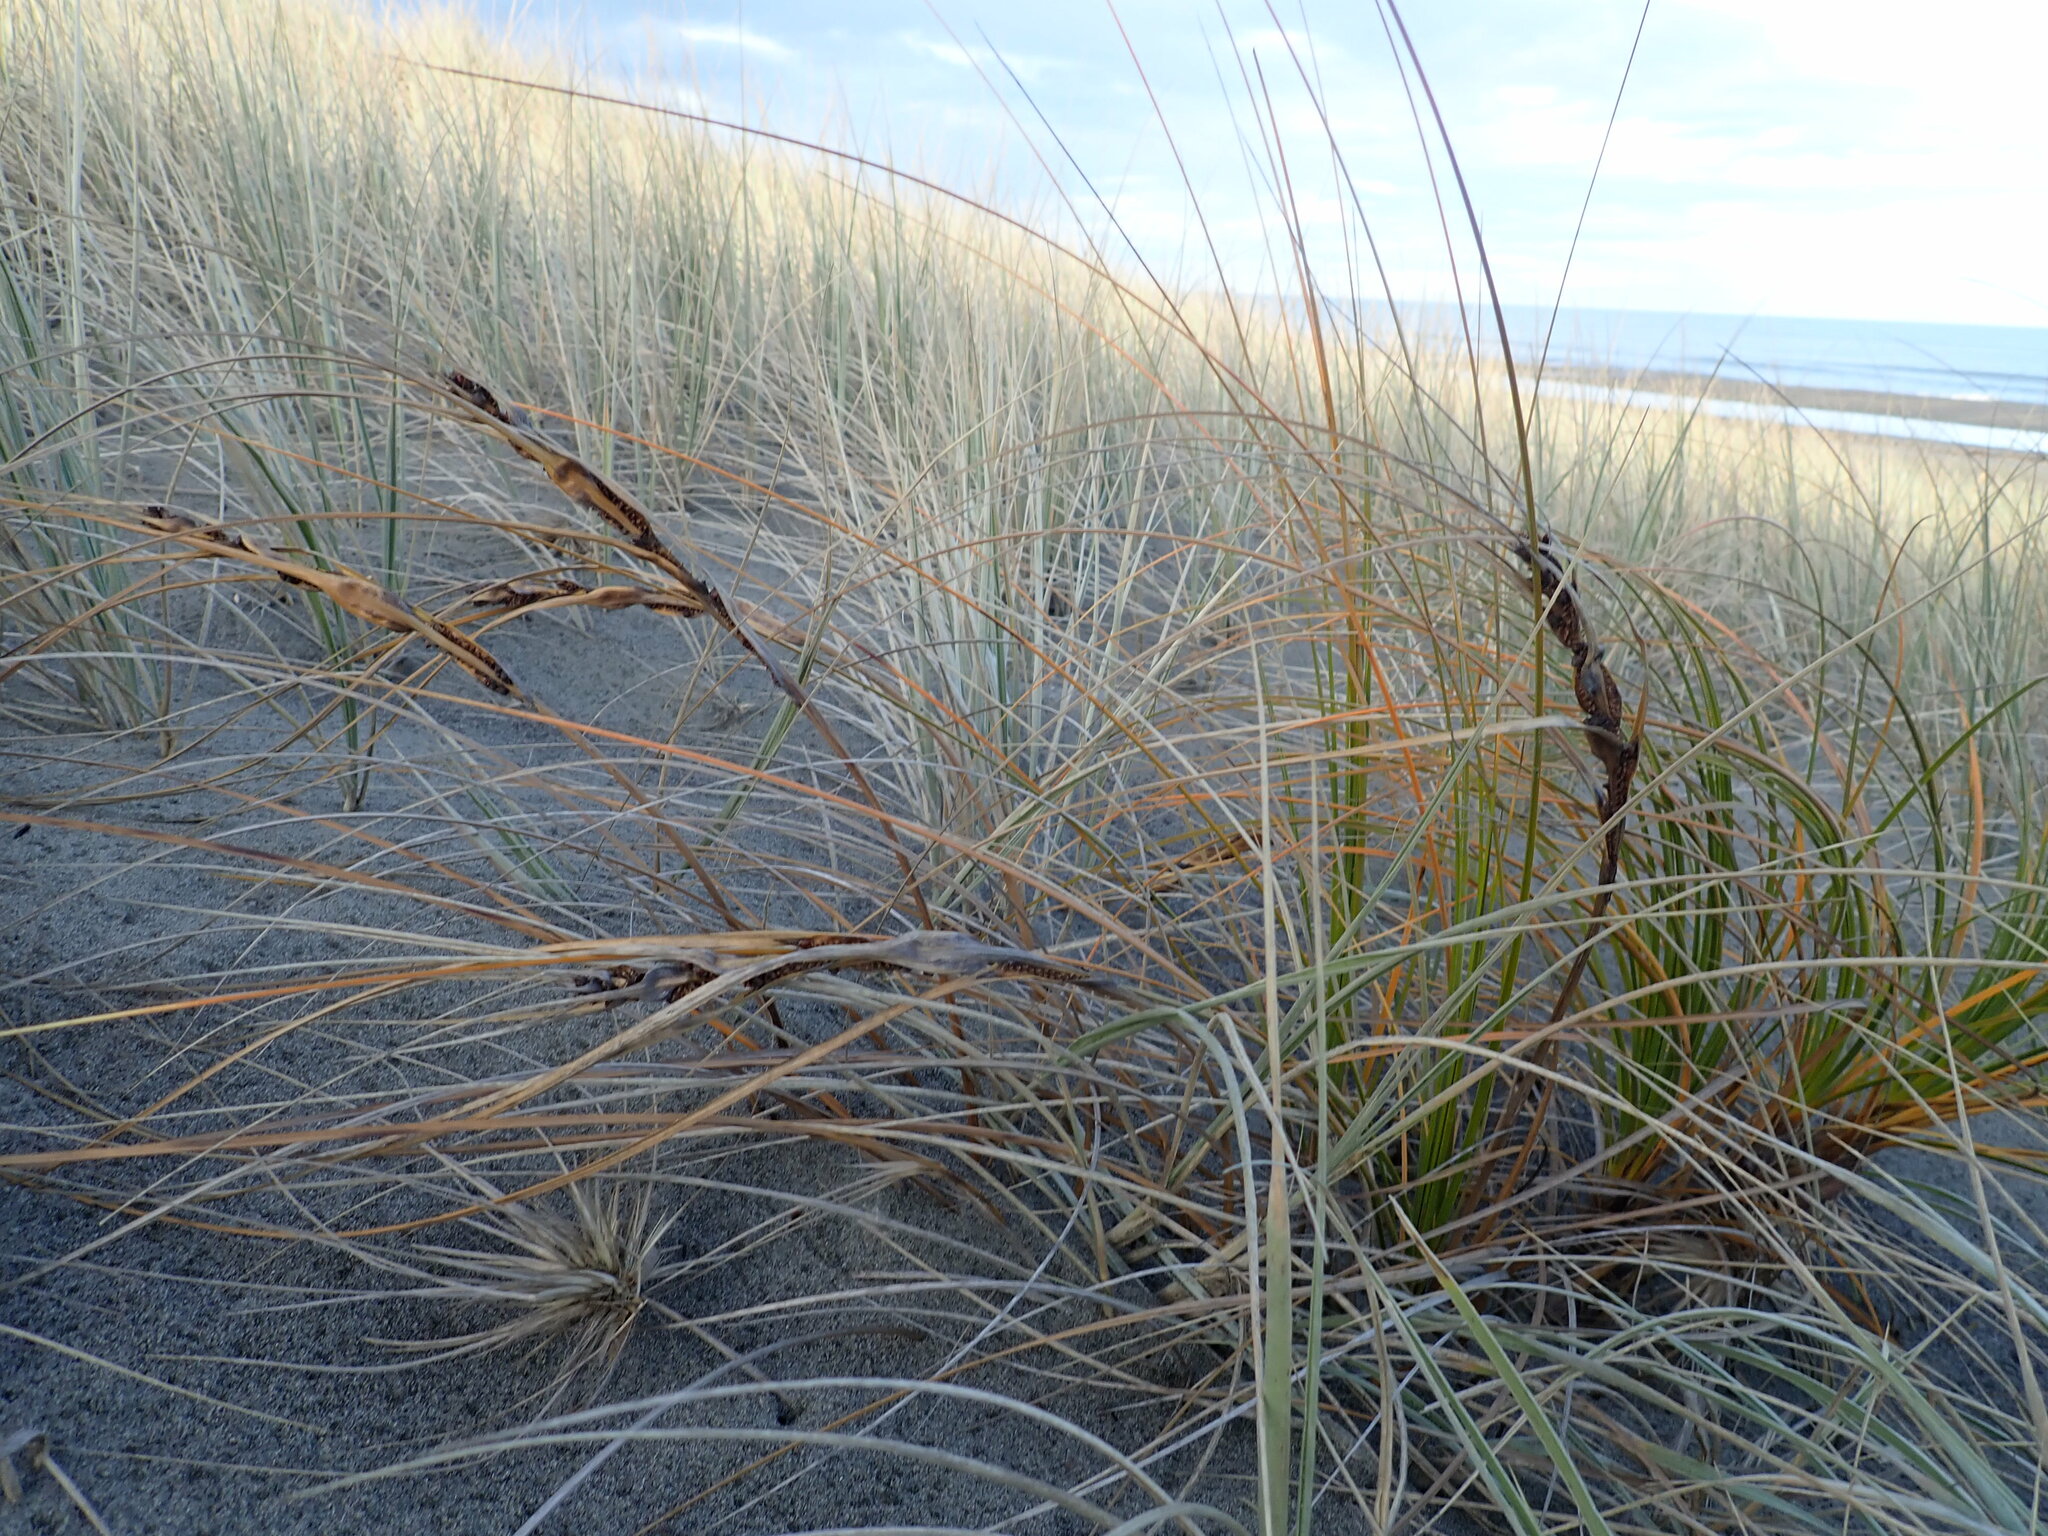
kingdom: Plantae
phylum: Tracheophyta
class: Liliopsida
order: Poales
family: Cyperaceae
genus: Ficinia
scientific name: Ficinia spiralis
